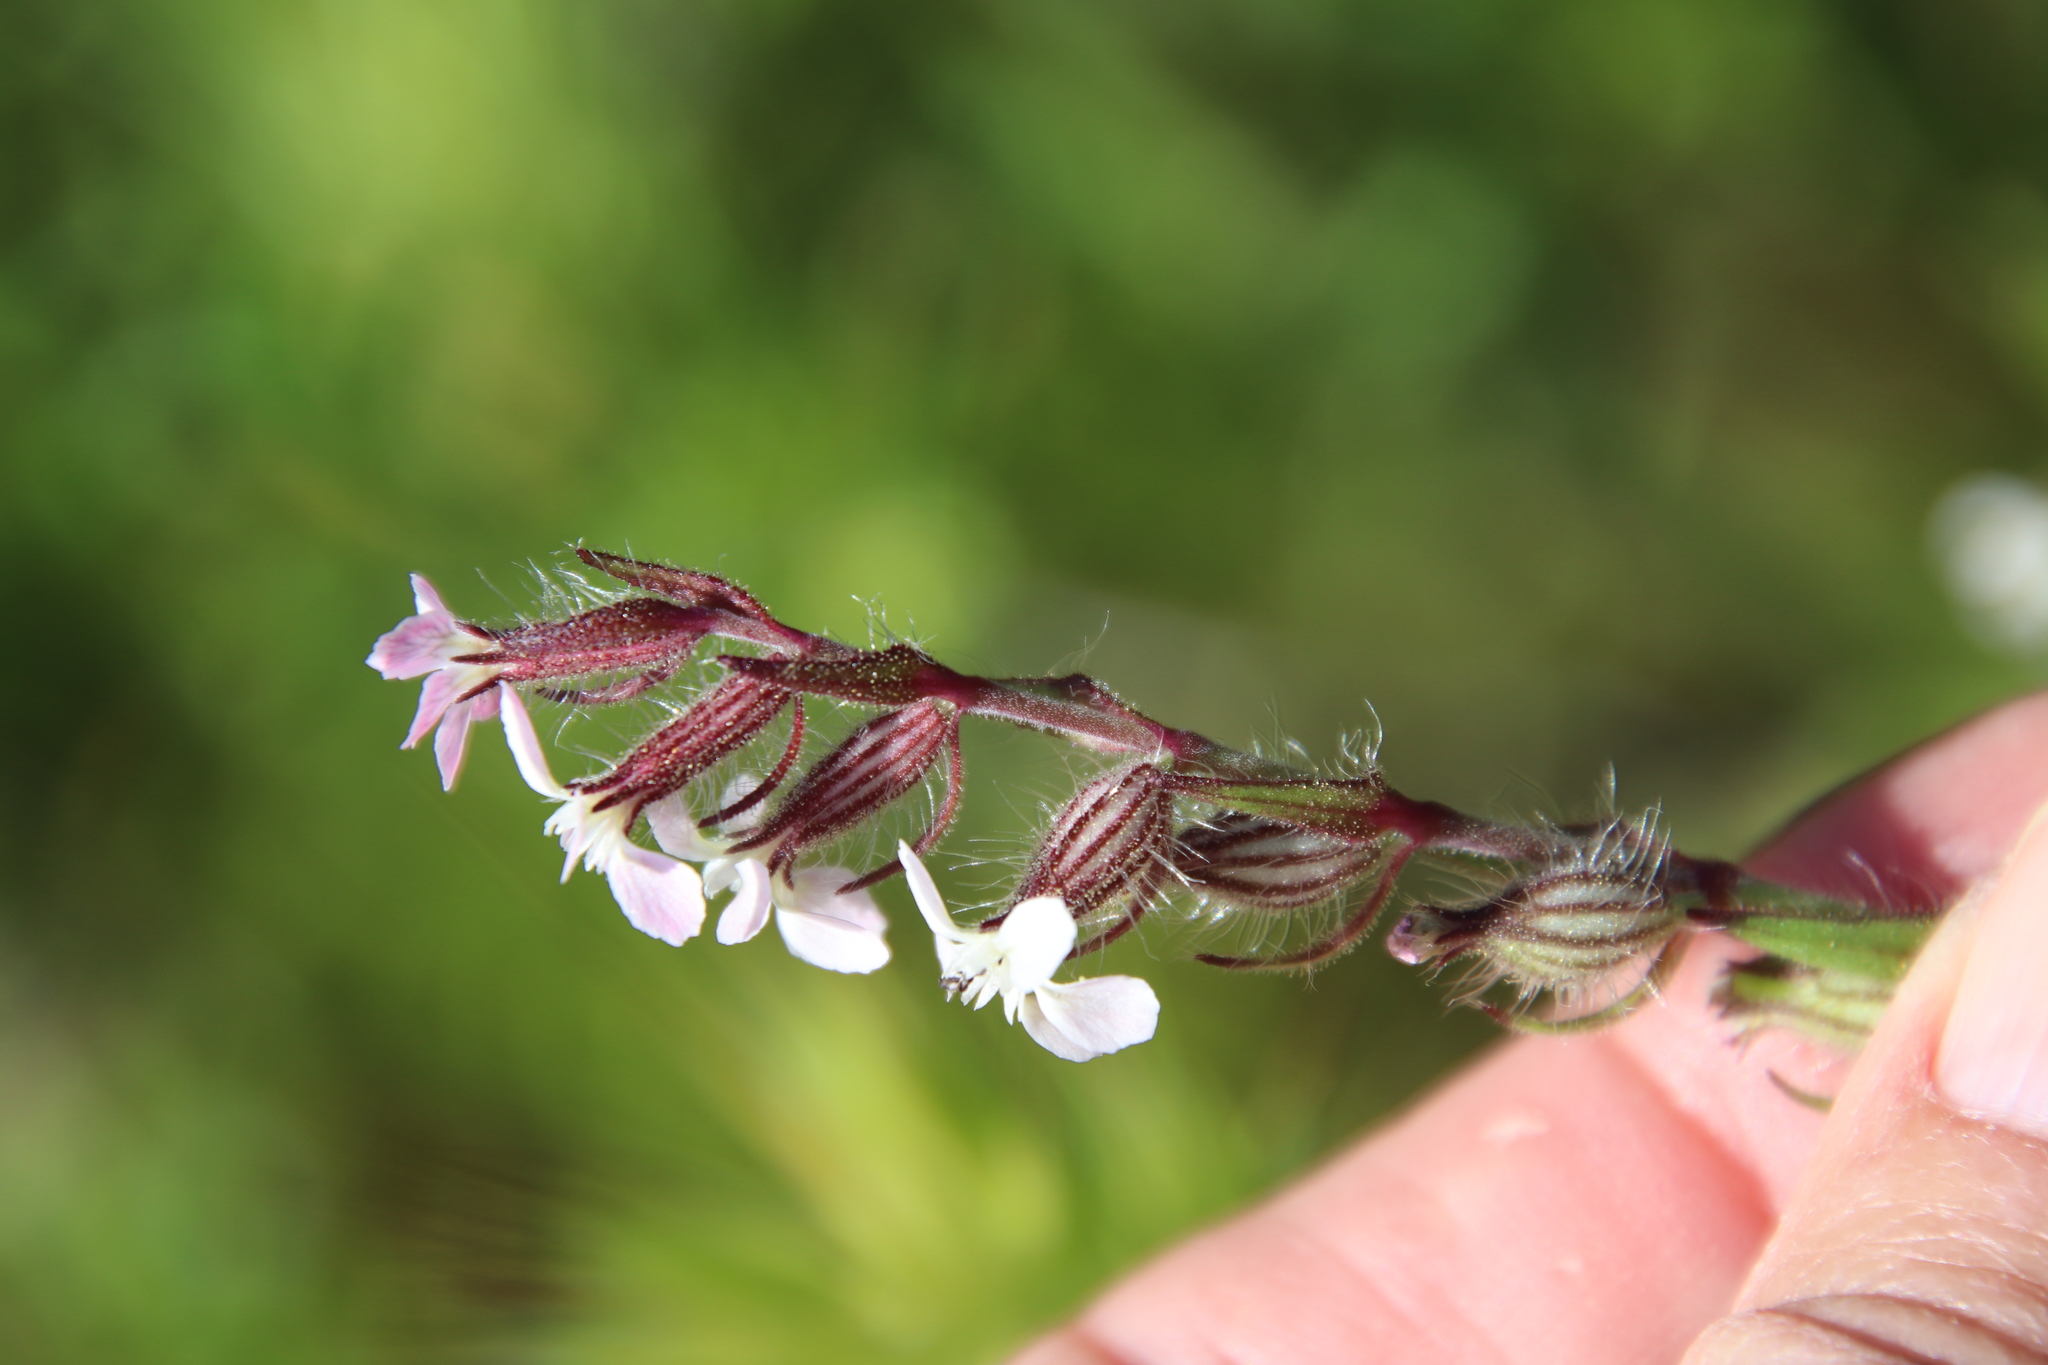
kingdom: Plantae
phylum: Tracheophyta
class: Magnoliopsida
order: Caryophyllales
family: Caryophyllaceae
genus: Silene
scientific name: Silene gallica
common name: Small-flowered catchfly
